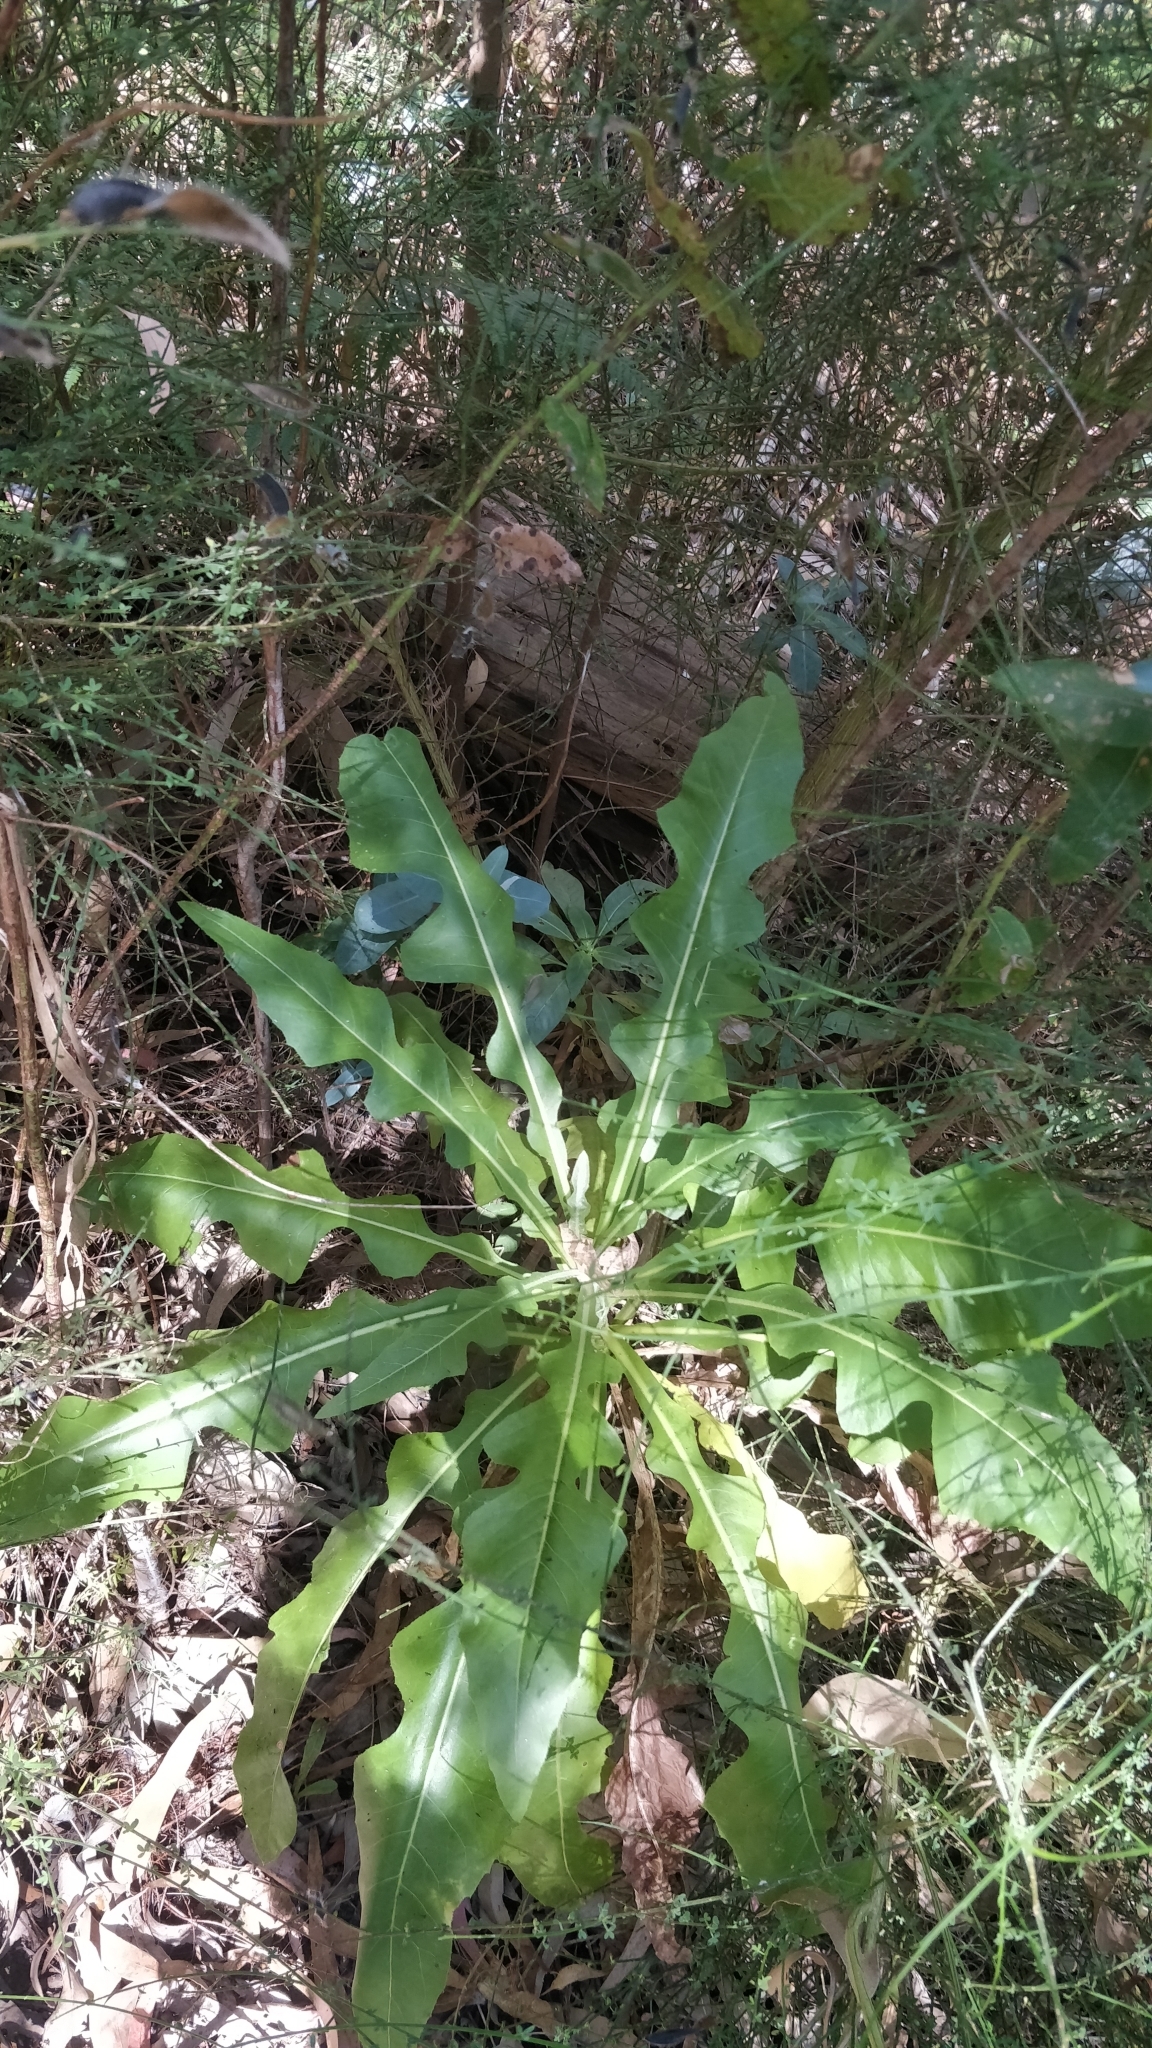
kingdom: Plantae
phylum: Tracheophyta
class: Magnoliopsida
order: Asterales
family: Asteraceae
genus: Sonchus
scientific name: Sonchus fruticosus
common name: Shrubby sow-thistle
